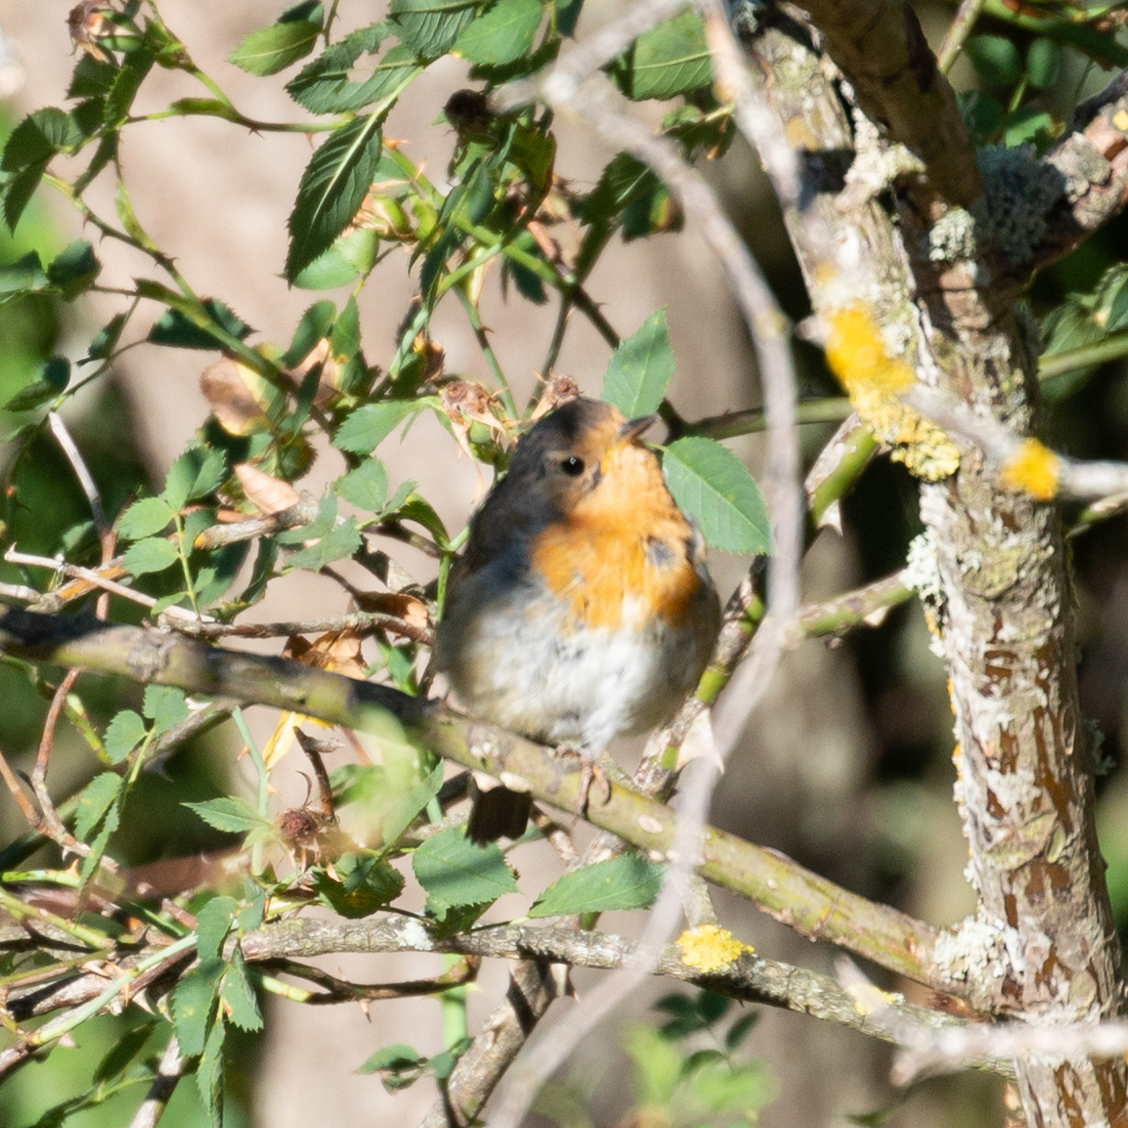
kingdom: Animalia
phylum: Chordata
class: Aves
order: Passeriformes
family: Muscicapidae
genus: Erithacus
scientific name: Erithacus rubecula
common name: European robin
